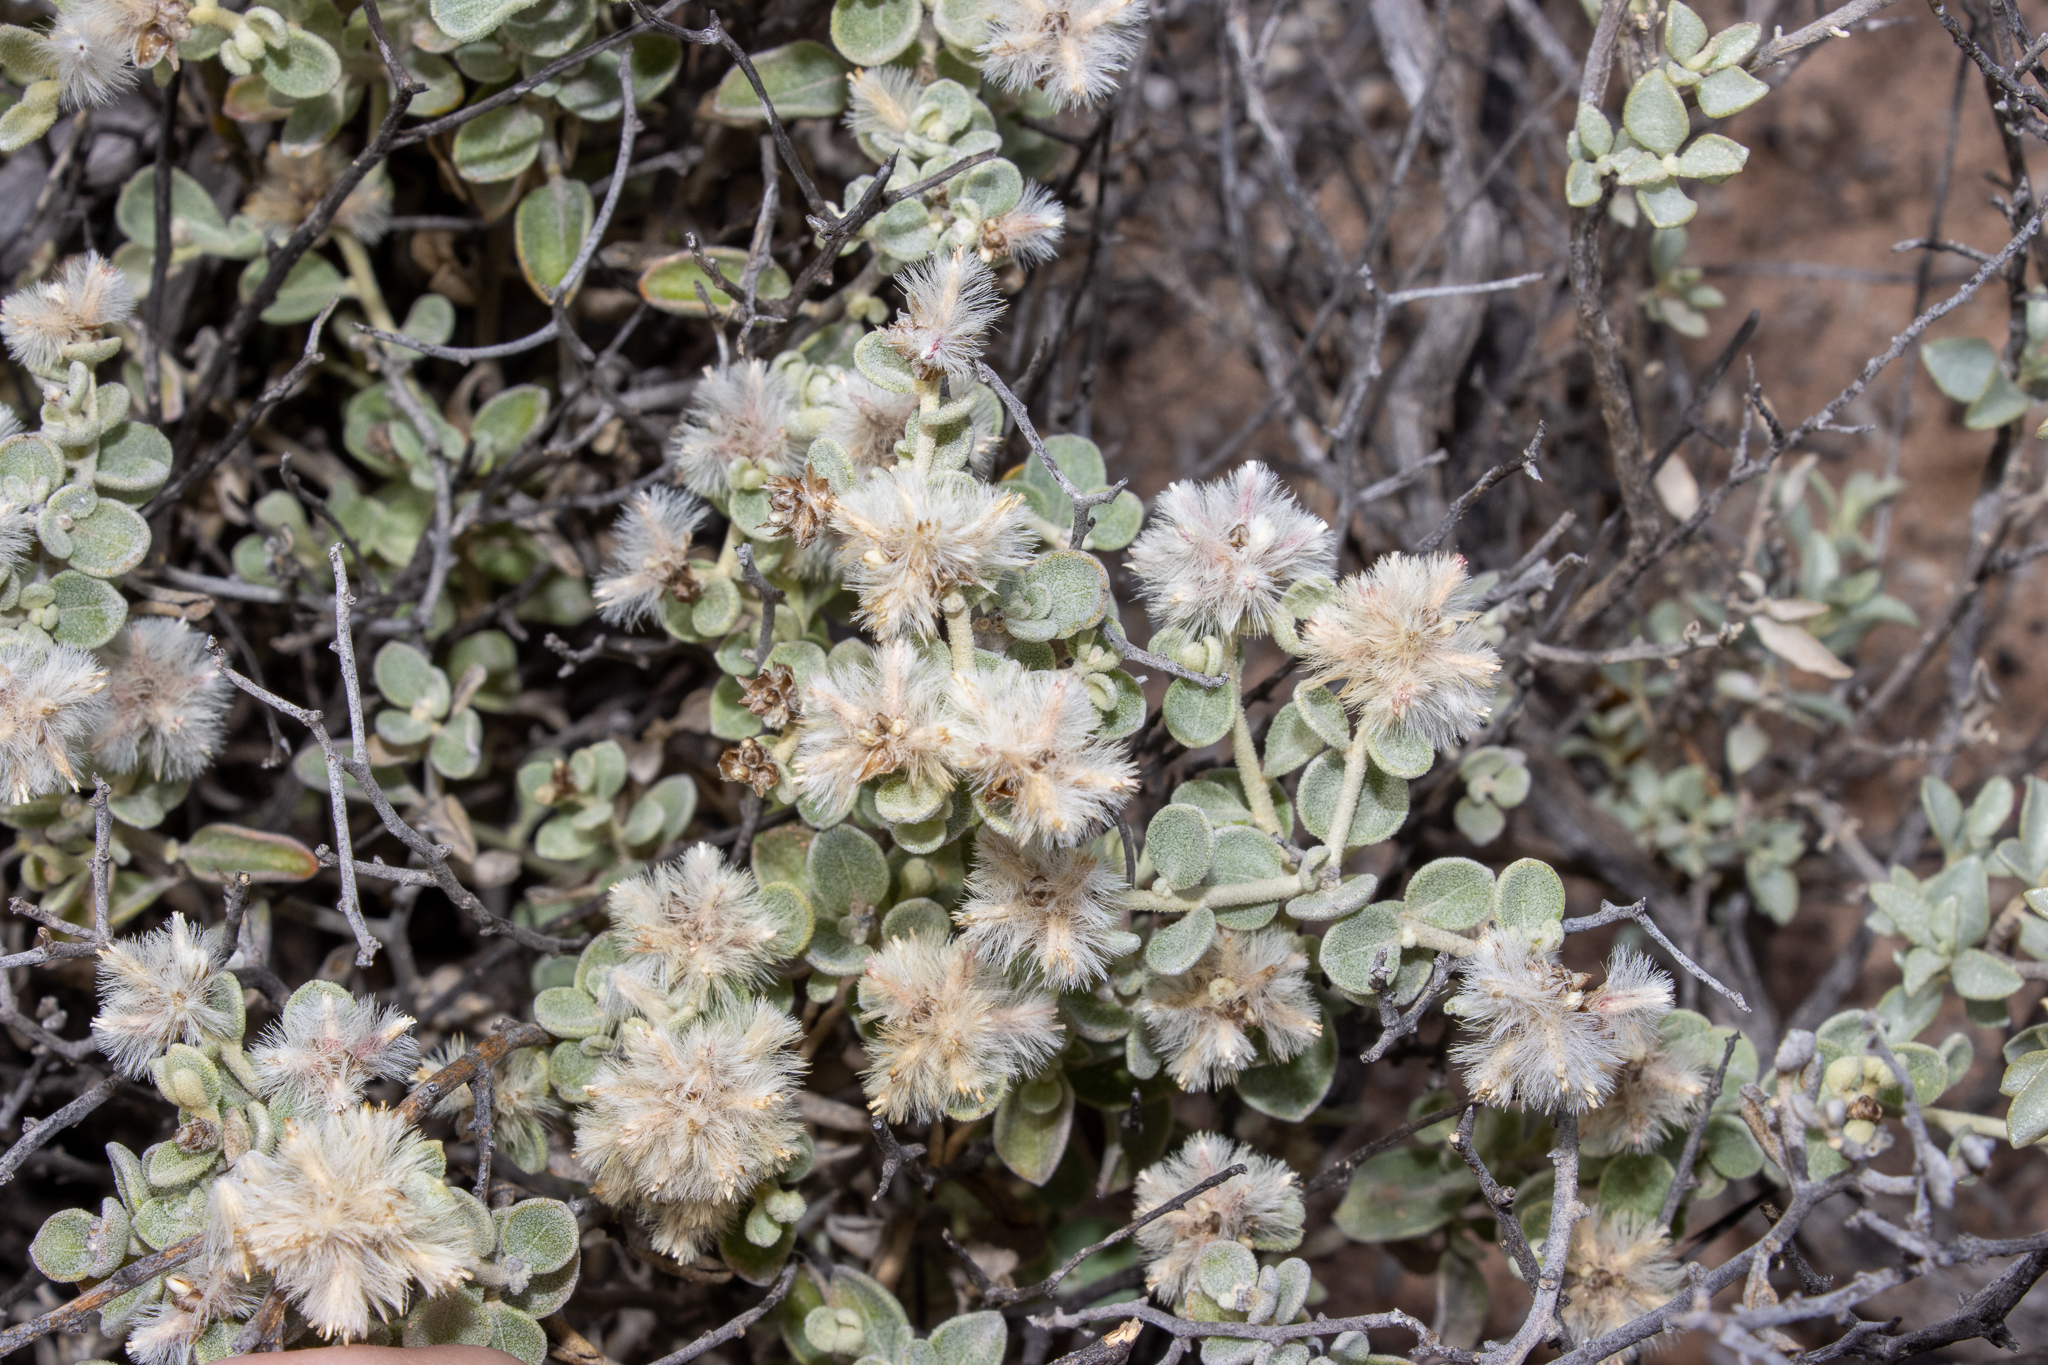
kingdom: Plantae
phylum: Tracheophyta
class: Magnoliopsida
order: Caryophyllales
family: Amaranthaceae
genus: Ptilotus
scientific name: Ptilotus obovatus
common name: Cottonbush
